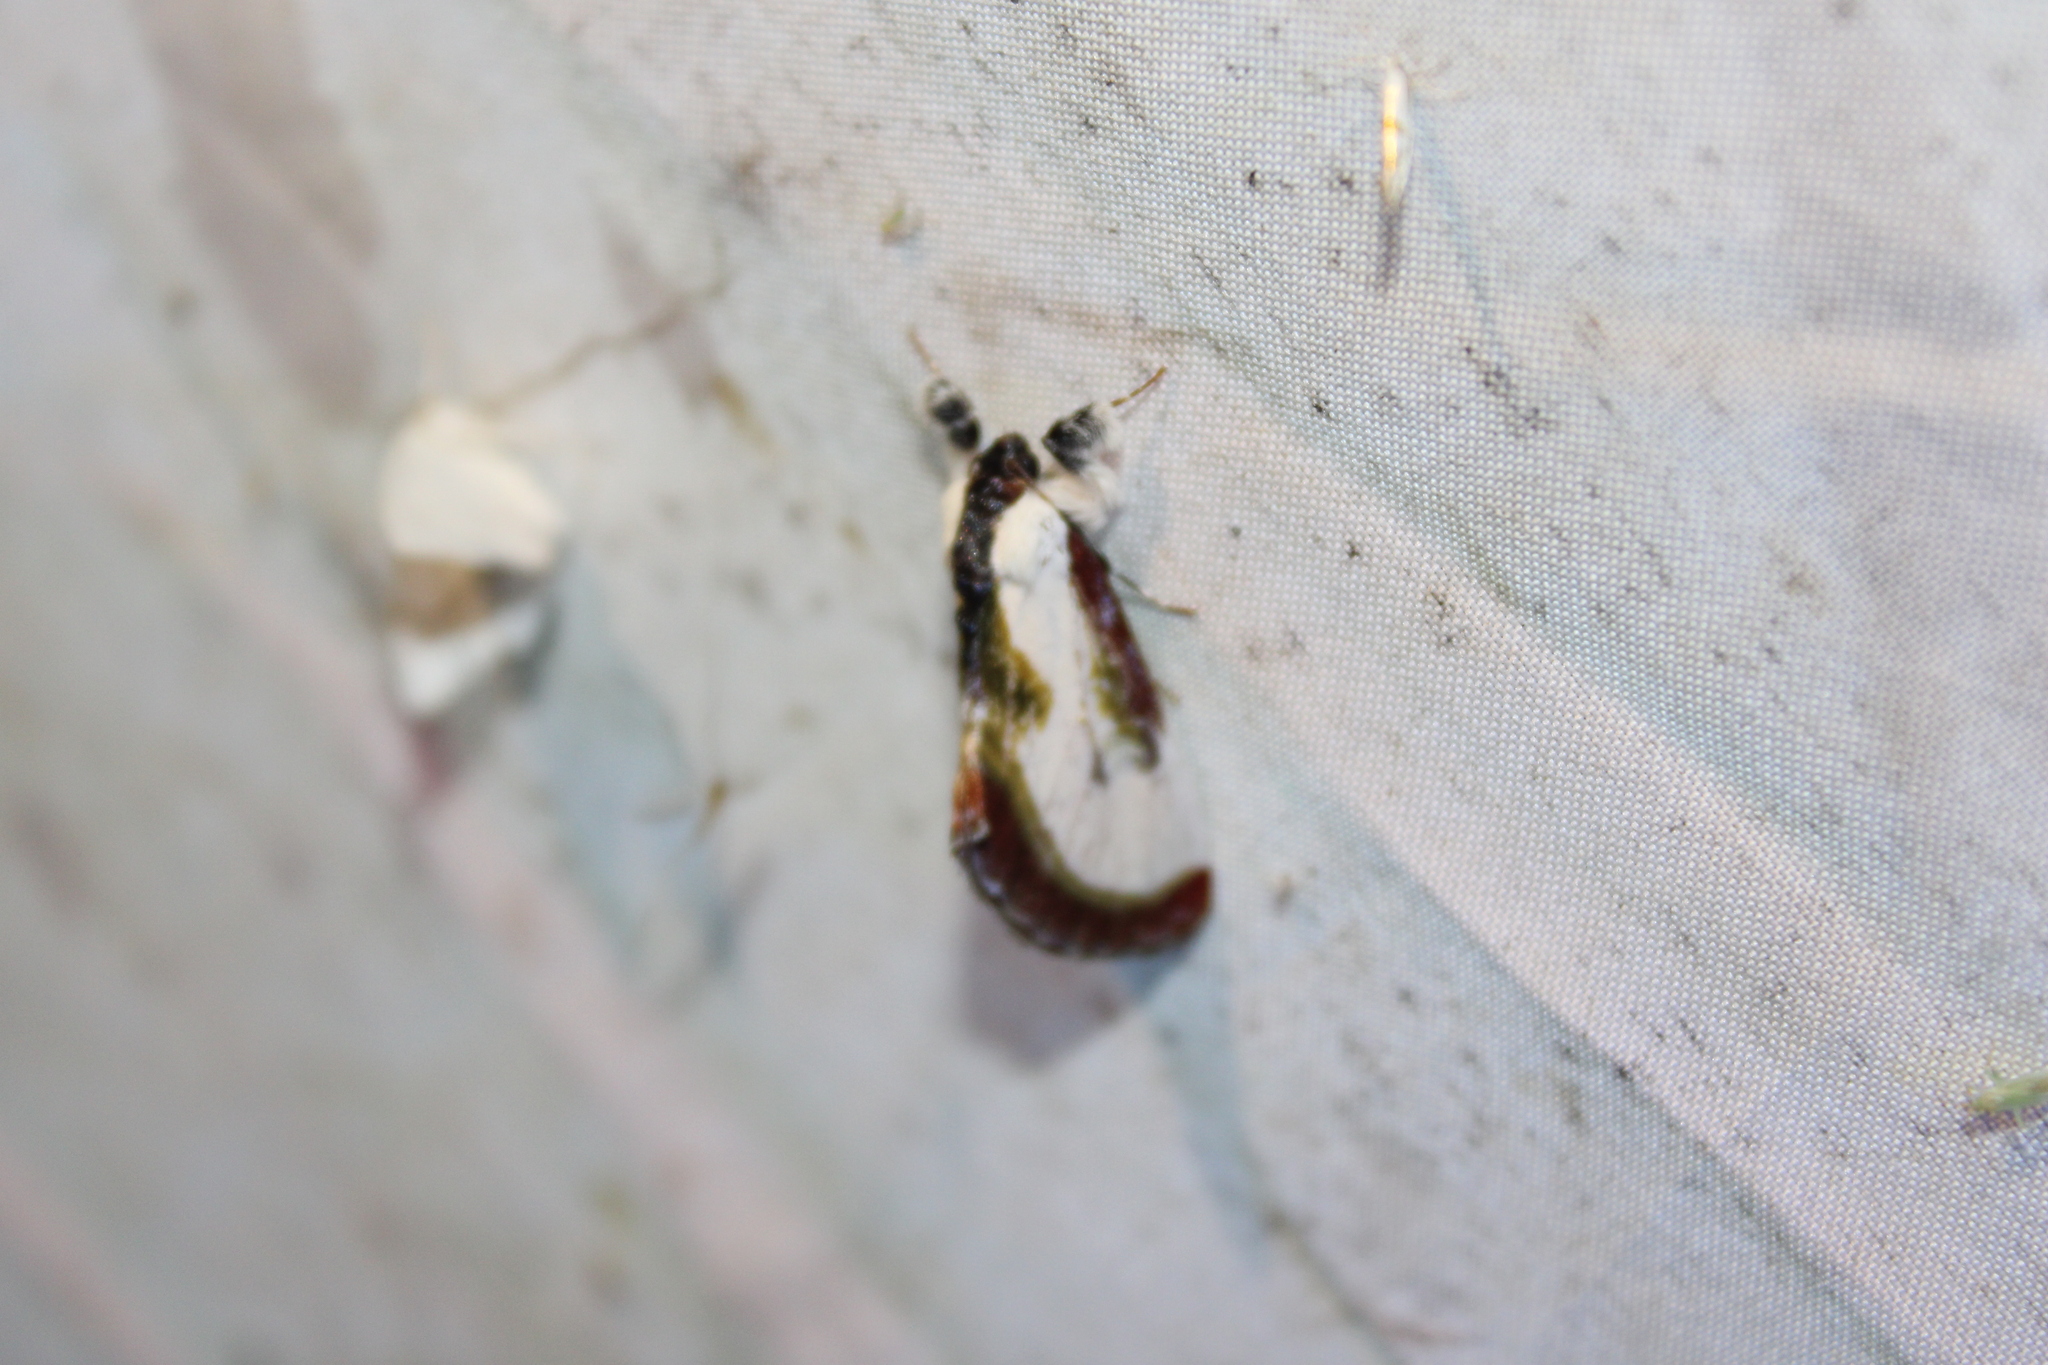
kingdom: Animalia
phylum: Arthropoda
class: Insecta
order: Lepidoptera
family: Noctuidae
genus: Eudryas
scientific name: Eudryas grata
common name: Beautiful wood-nymph
